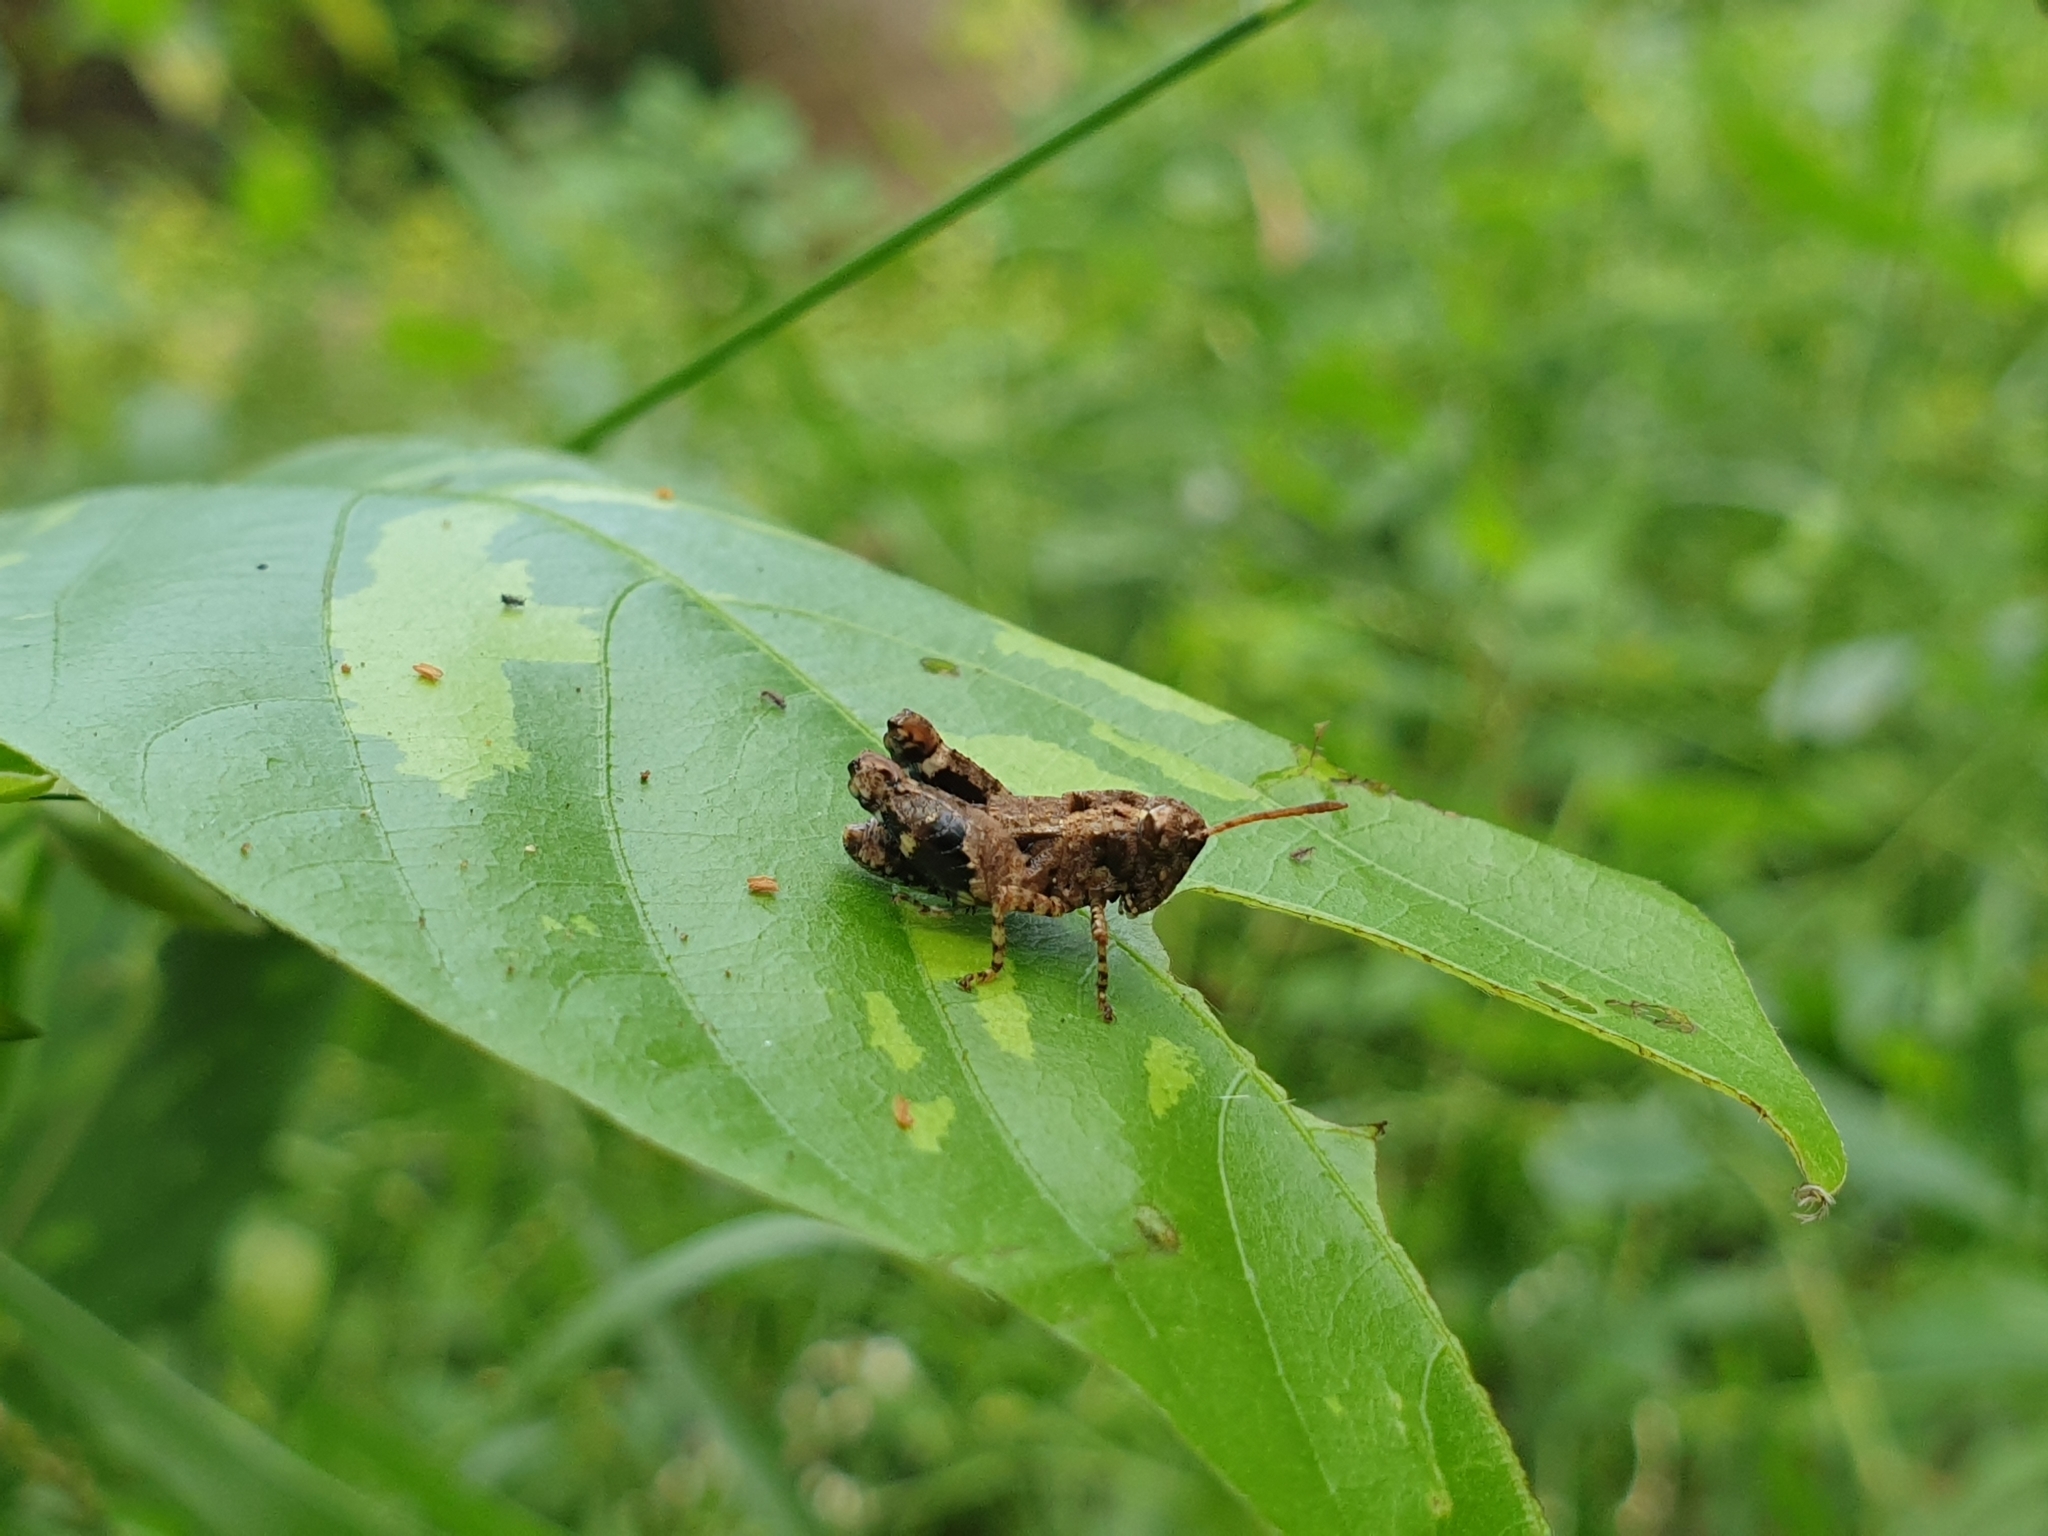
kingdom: Animalia
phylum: Arthropoda
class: Insecta
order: Orthoptera
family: Acrididae
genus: Dubitacris
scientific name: Dubitacris robustus
